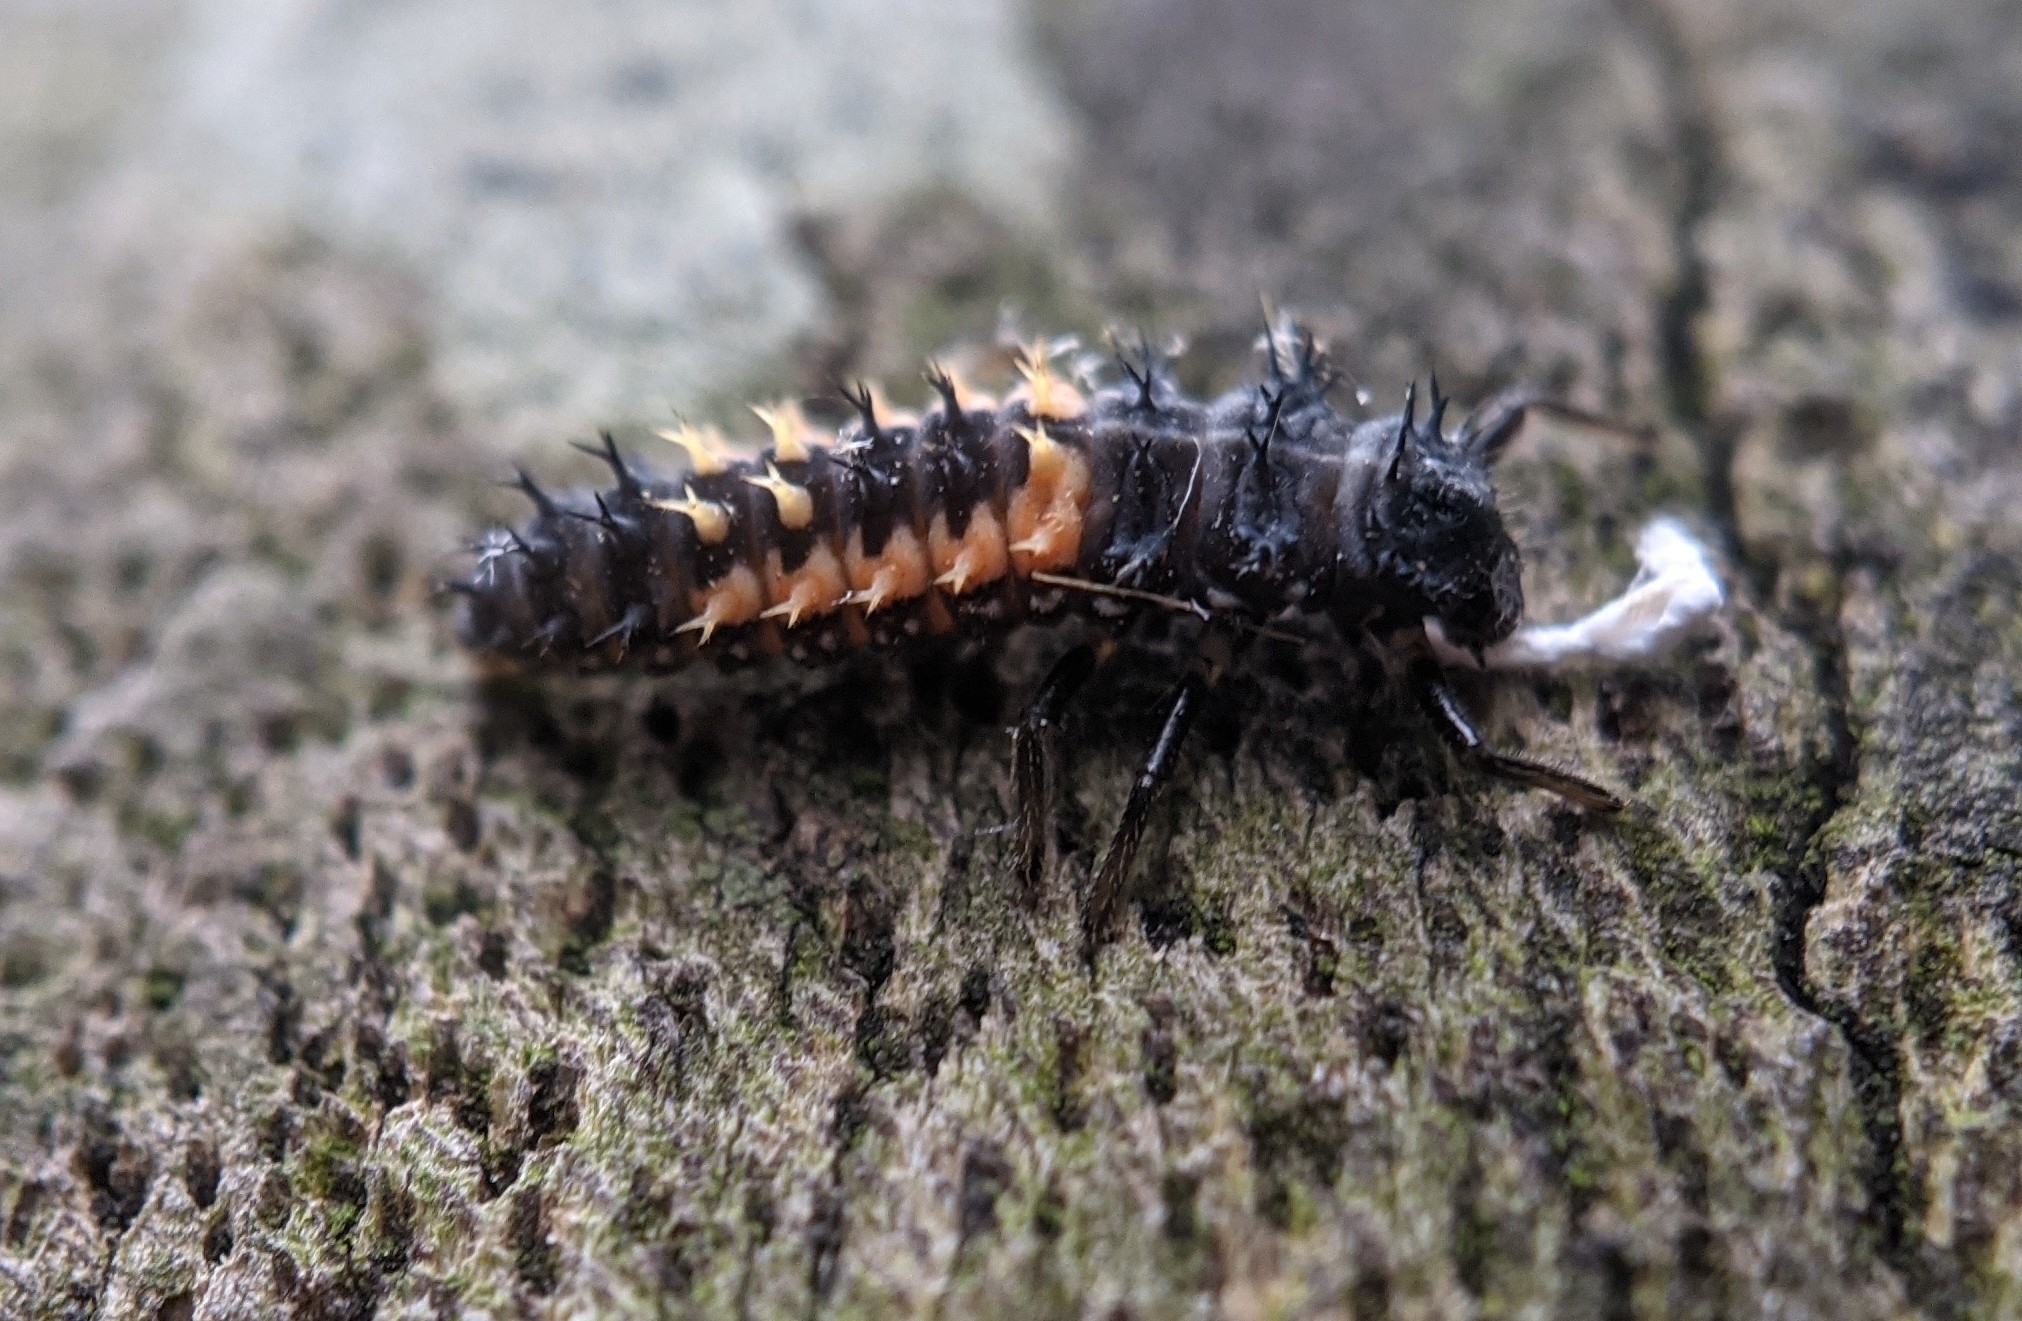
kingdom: Animalia
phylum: Arthropoda
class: Insecta
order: Coleoptera
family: Coccinellidae
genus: Harmonia
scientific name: Harmonia axyridis
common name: Harlequin ladybird
